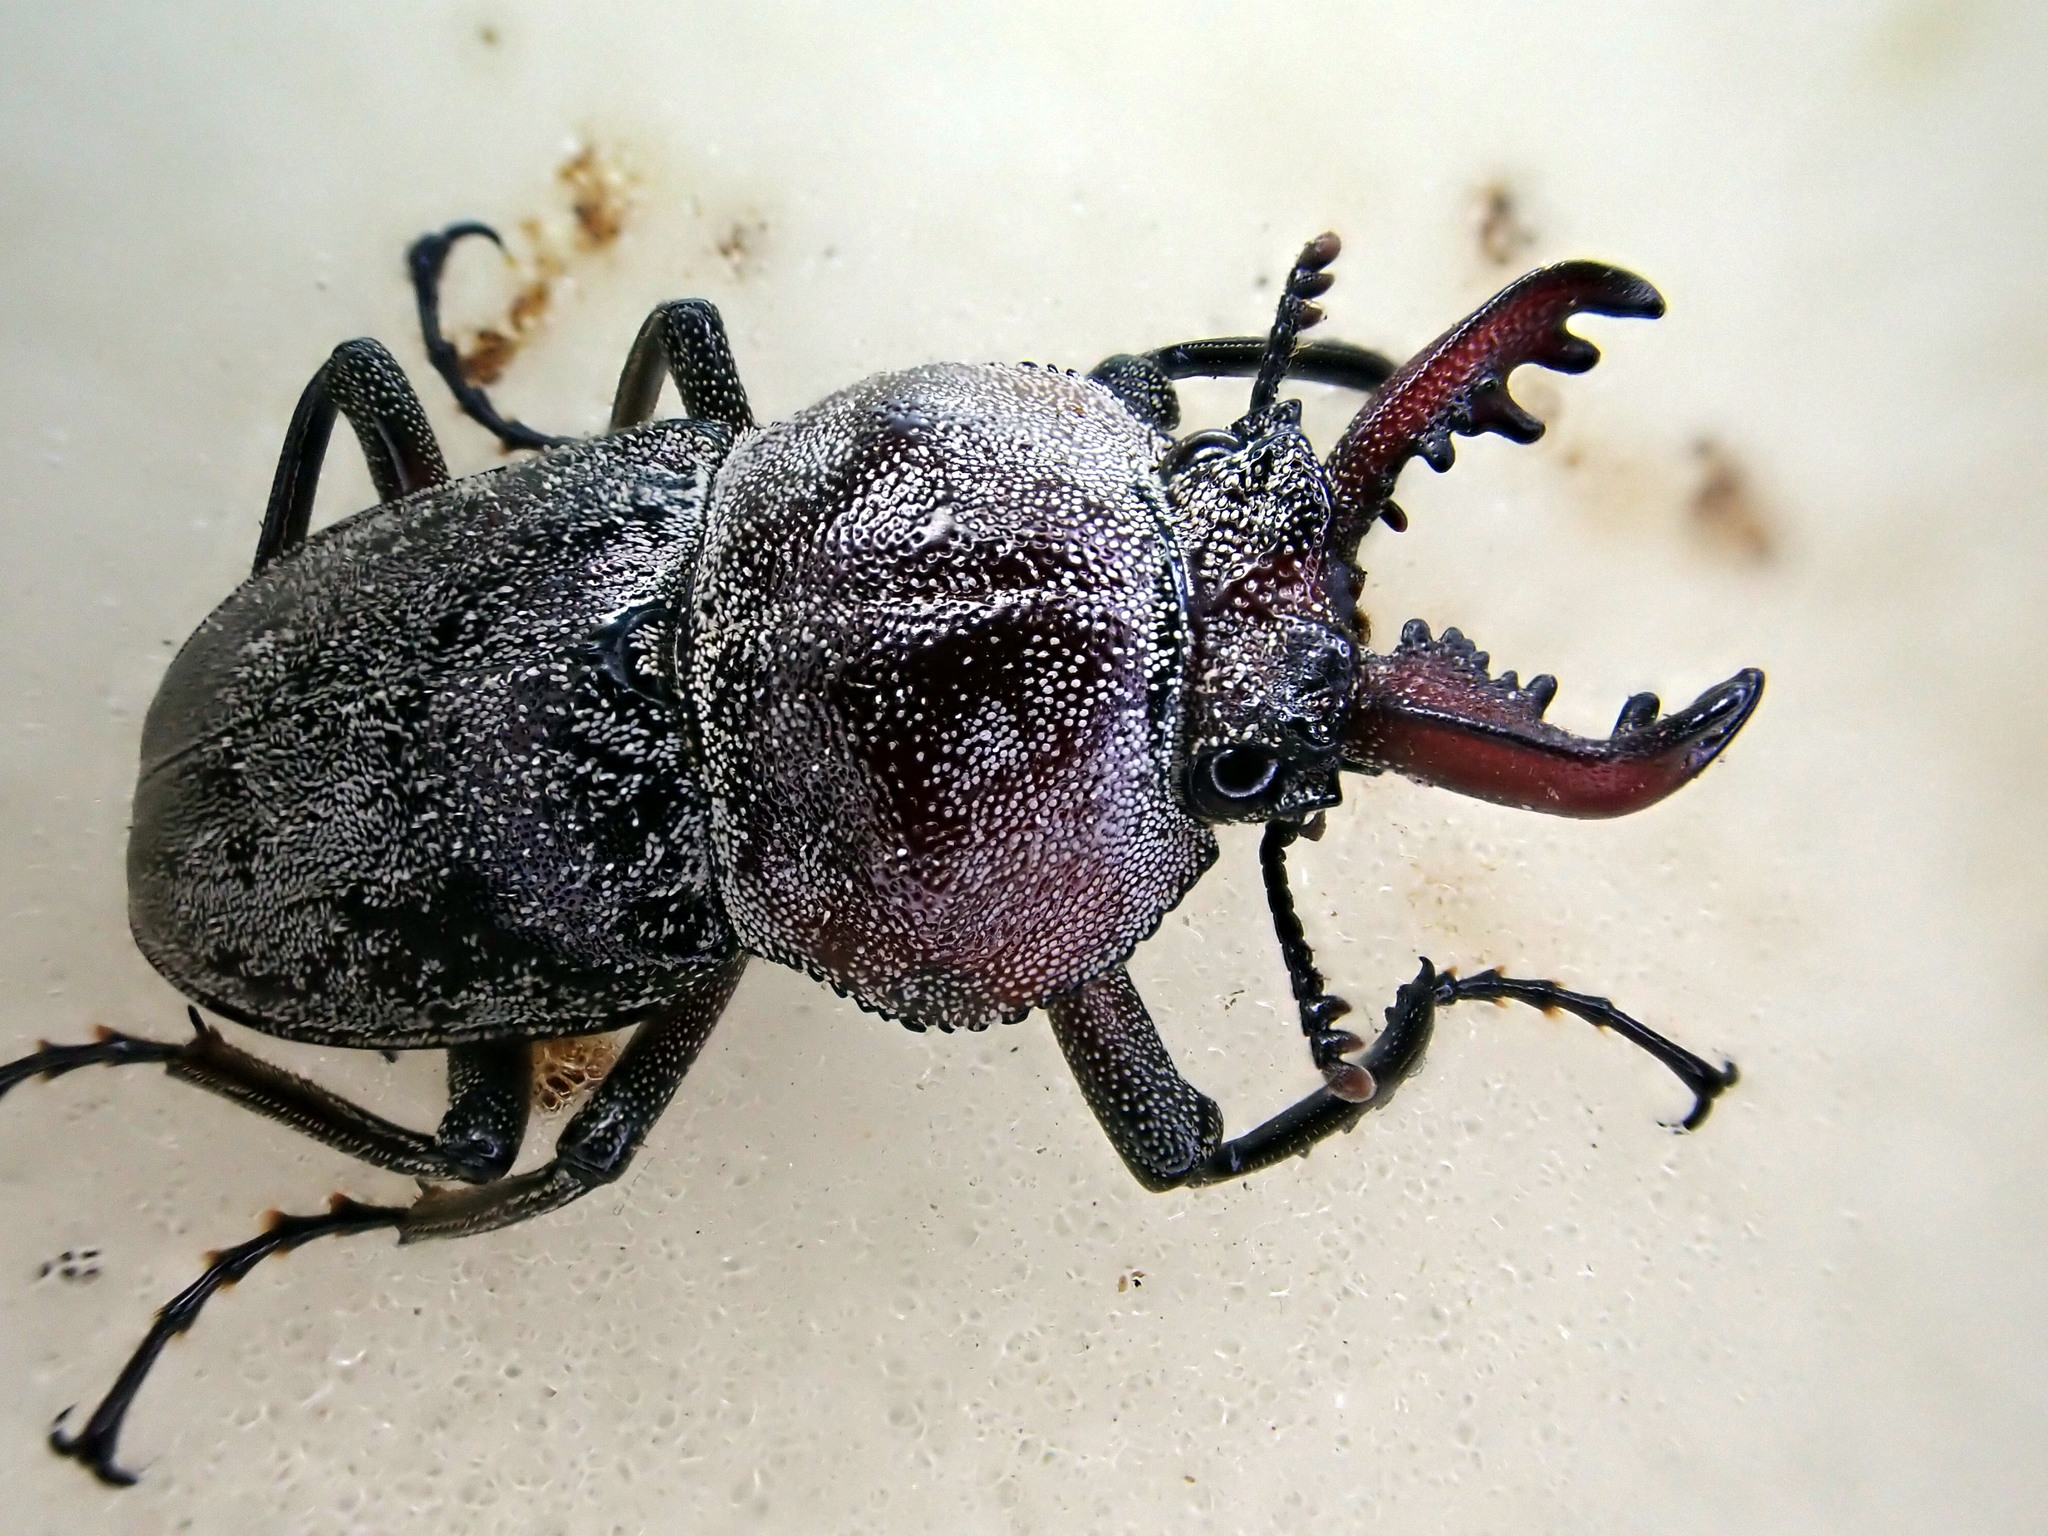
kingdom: Animalia
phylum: Arthropoda
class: Insecta
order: Coleoptera
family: Lucanidae
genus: Cacostomus
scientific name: Cacostomus squamosus
